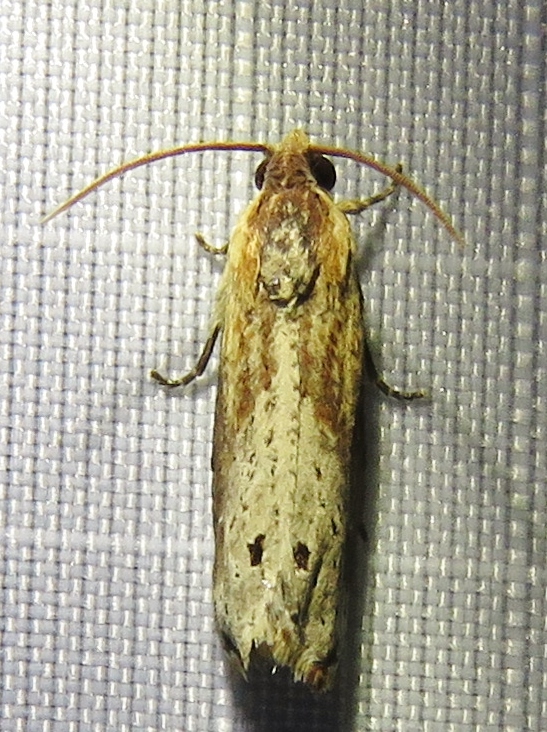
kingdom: Animalia
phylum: Arthropoda
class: Insecta
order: Lepidoptera
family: Tortricidae
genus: Pseudogalleria
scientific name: Pseudogalleria inimicella
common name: Inimical borer moth
